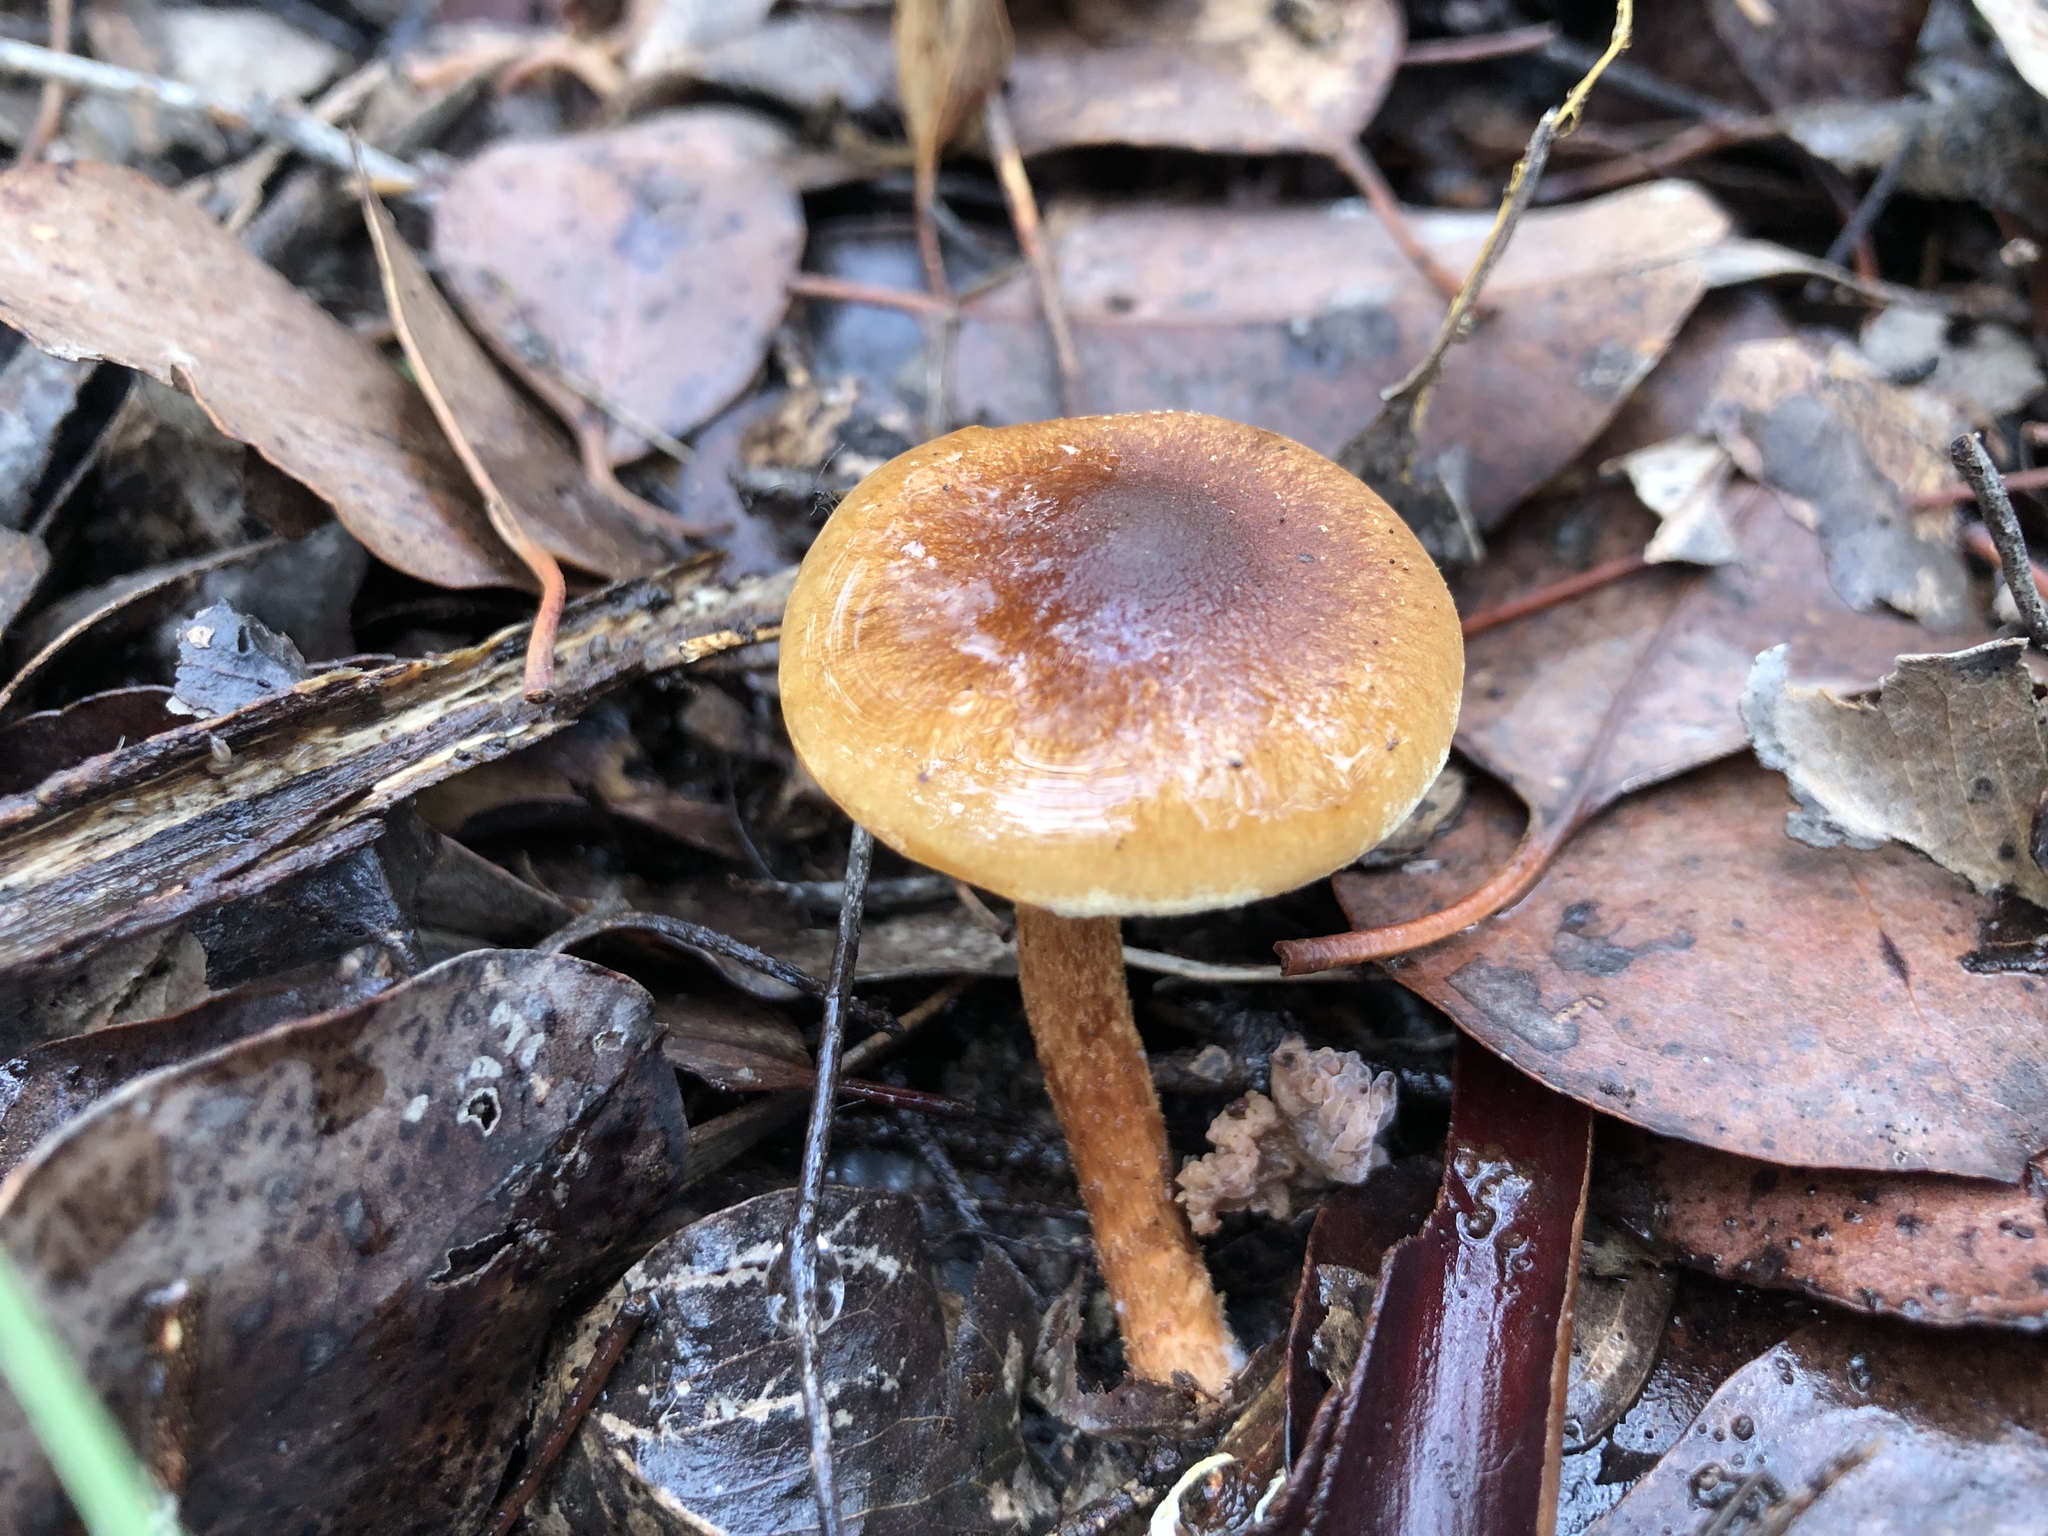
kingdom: Fungi
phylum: Basidiomycota
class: Agaricomycetes
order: Agaricales
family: Strophariaceae
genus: Pholiota
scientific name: Pholiota communis
